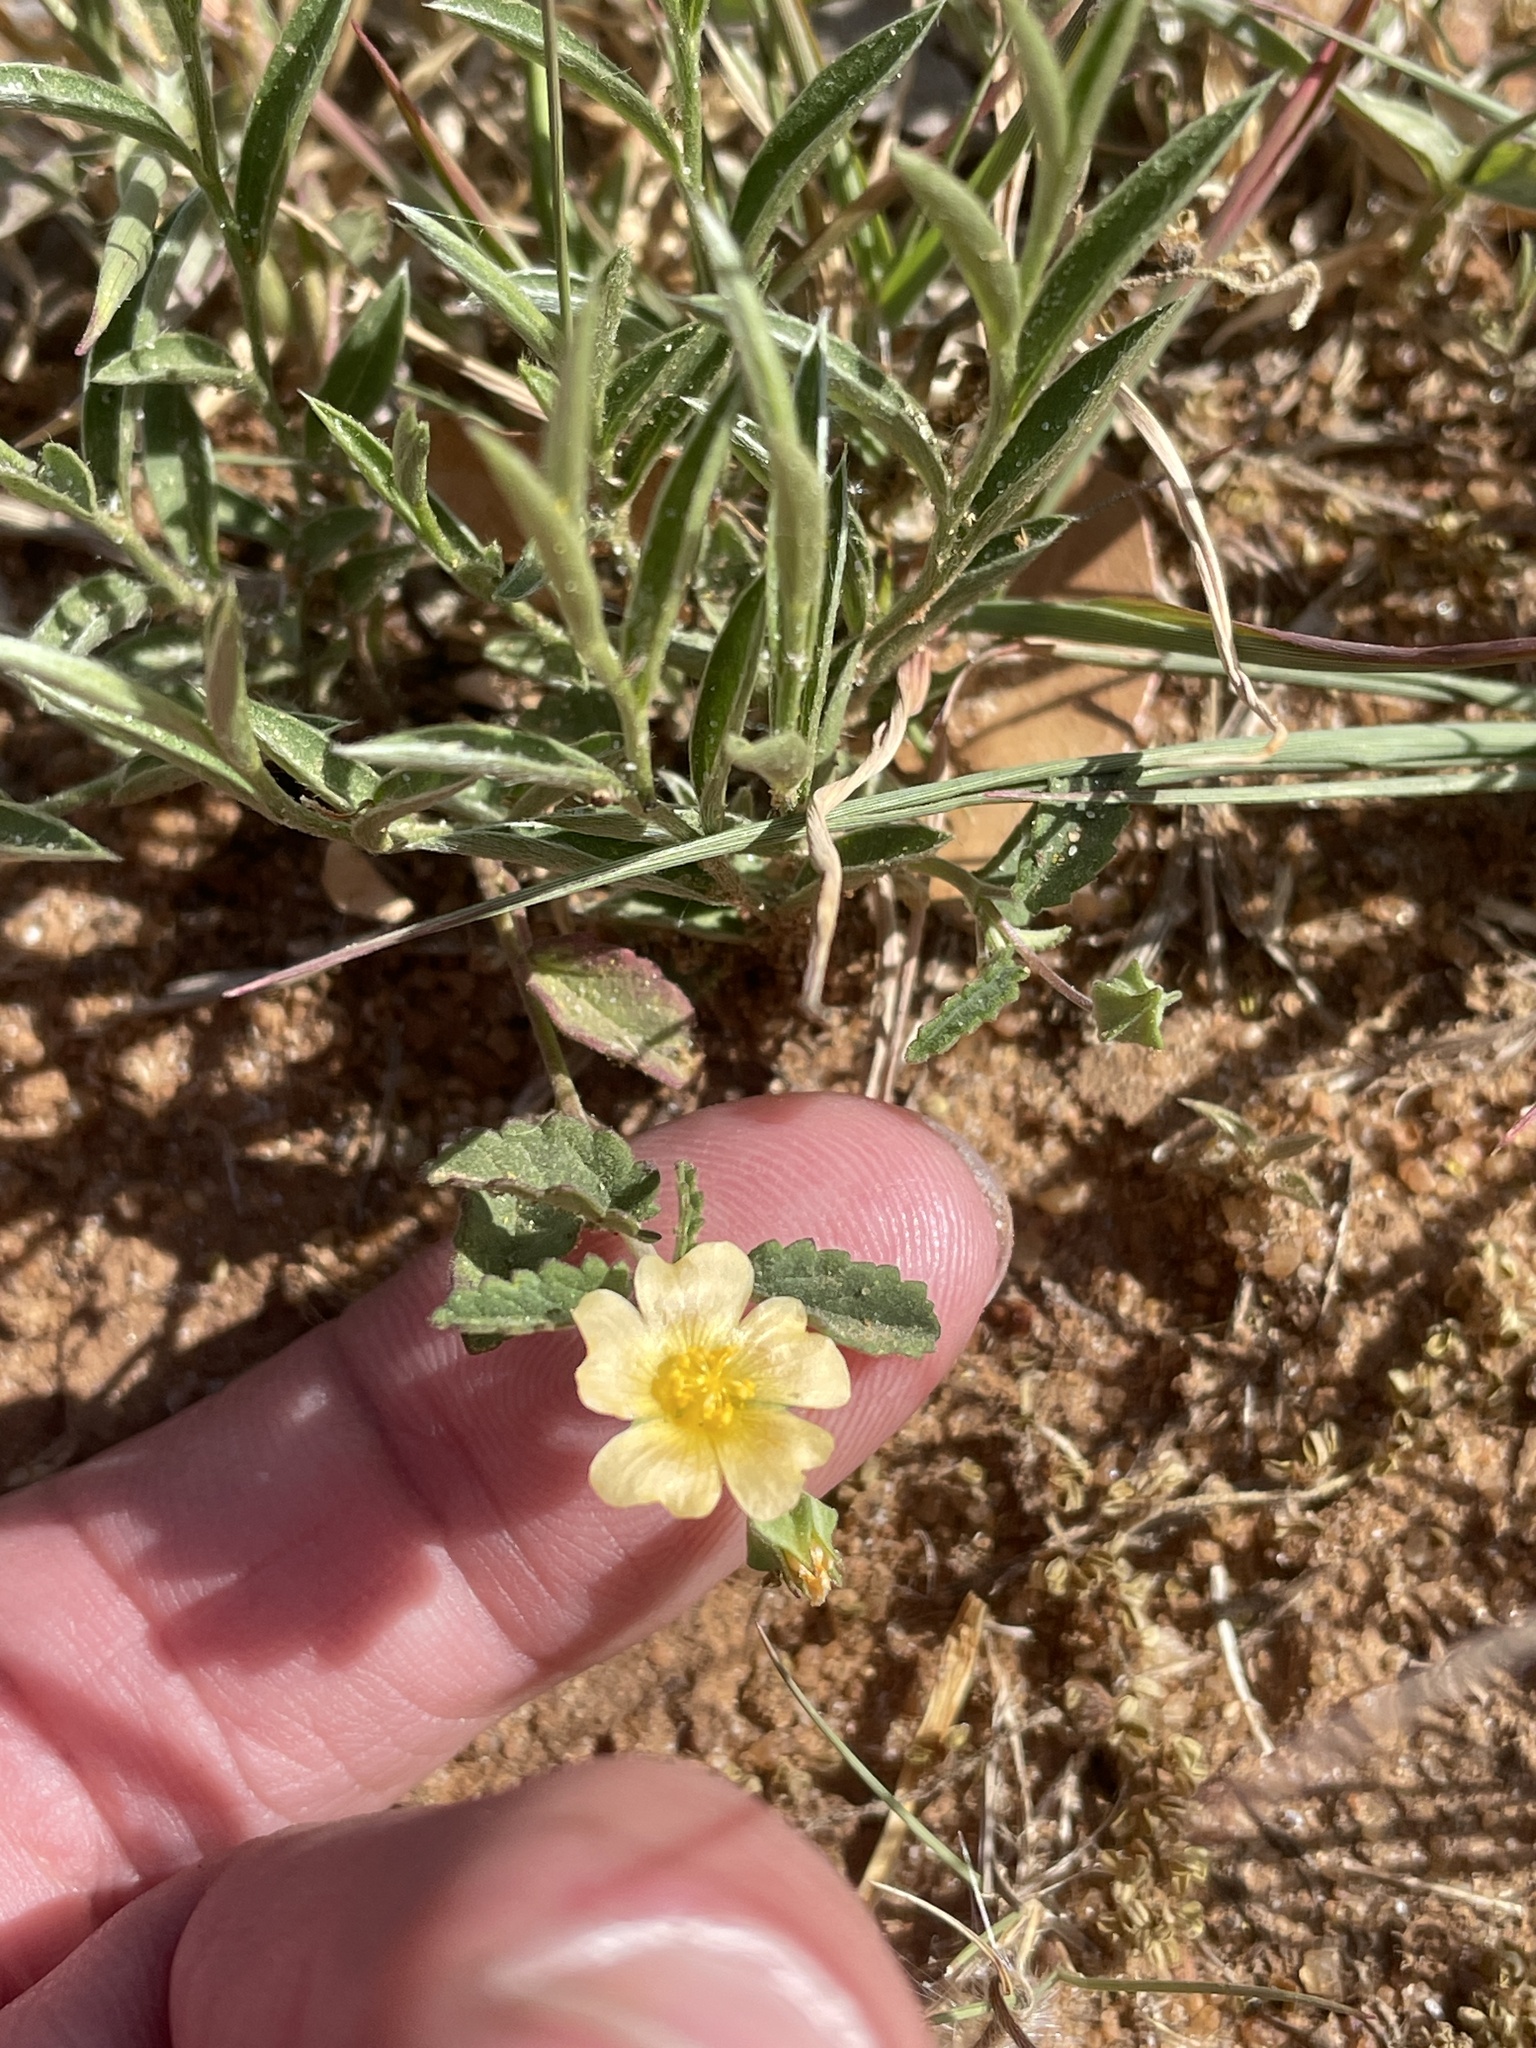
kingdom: Plantae
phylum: Tracheophyta
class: Magnoliopsida
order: Malvales
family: Malvaceae
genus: Sida
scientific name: Sida abutilifolia
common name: Spreading fanpetals
